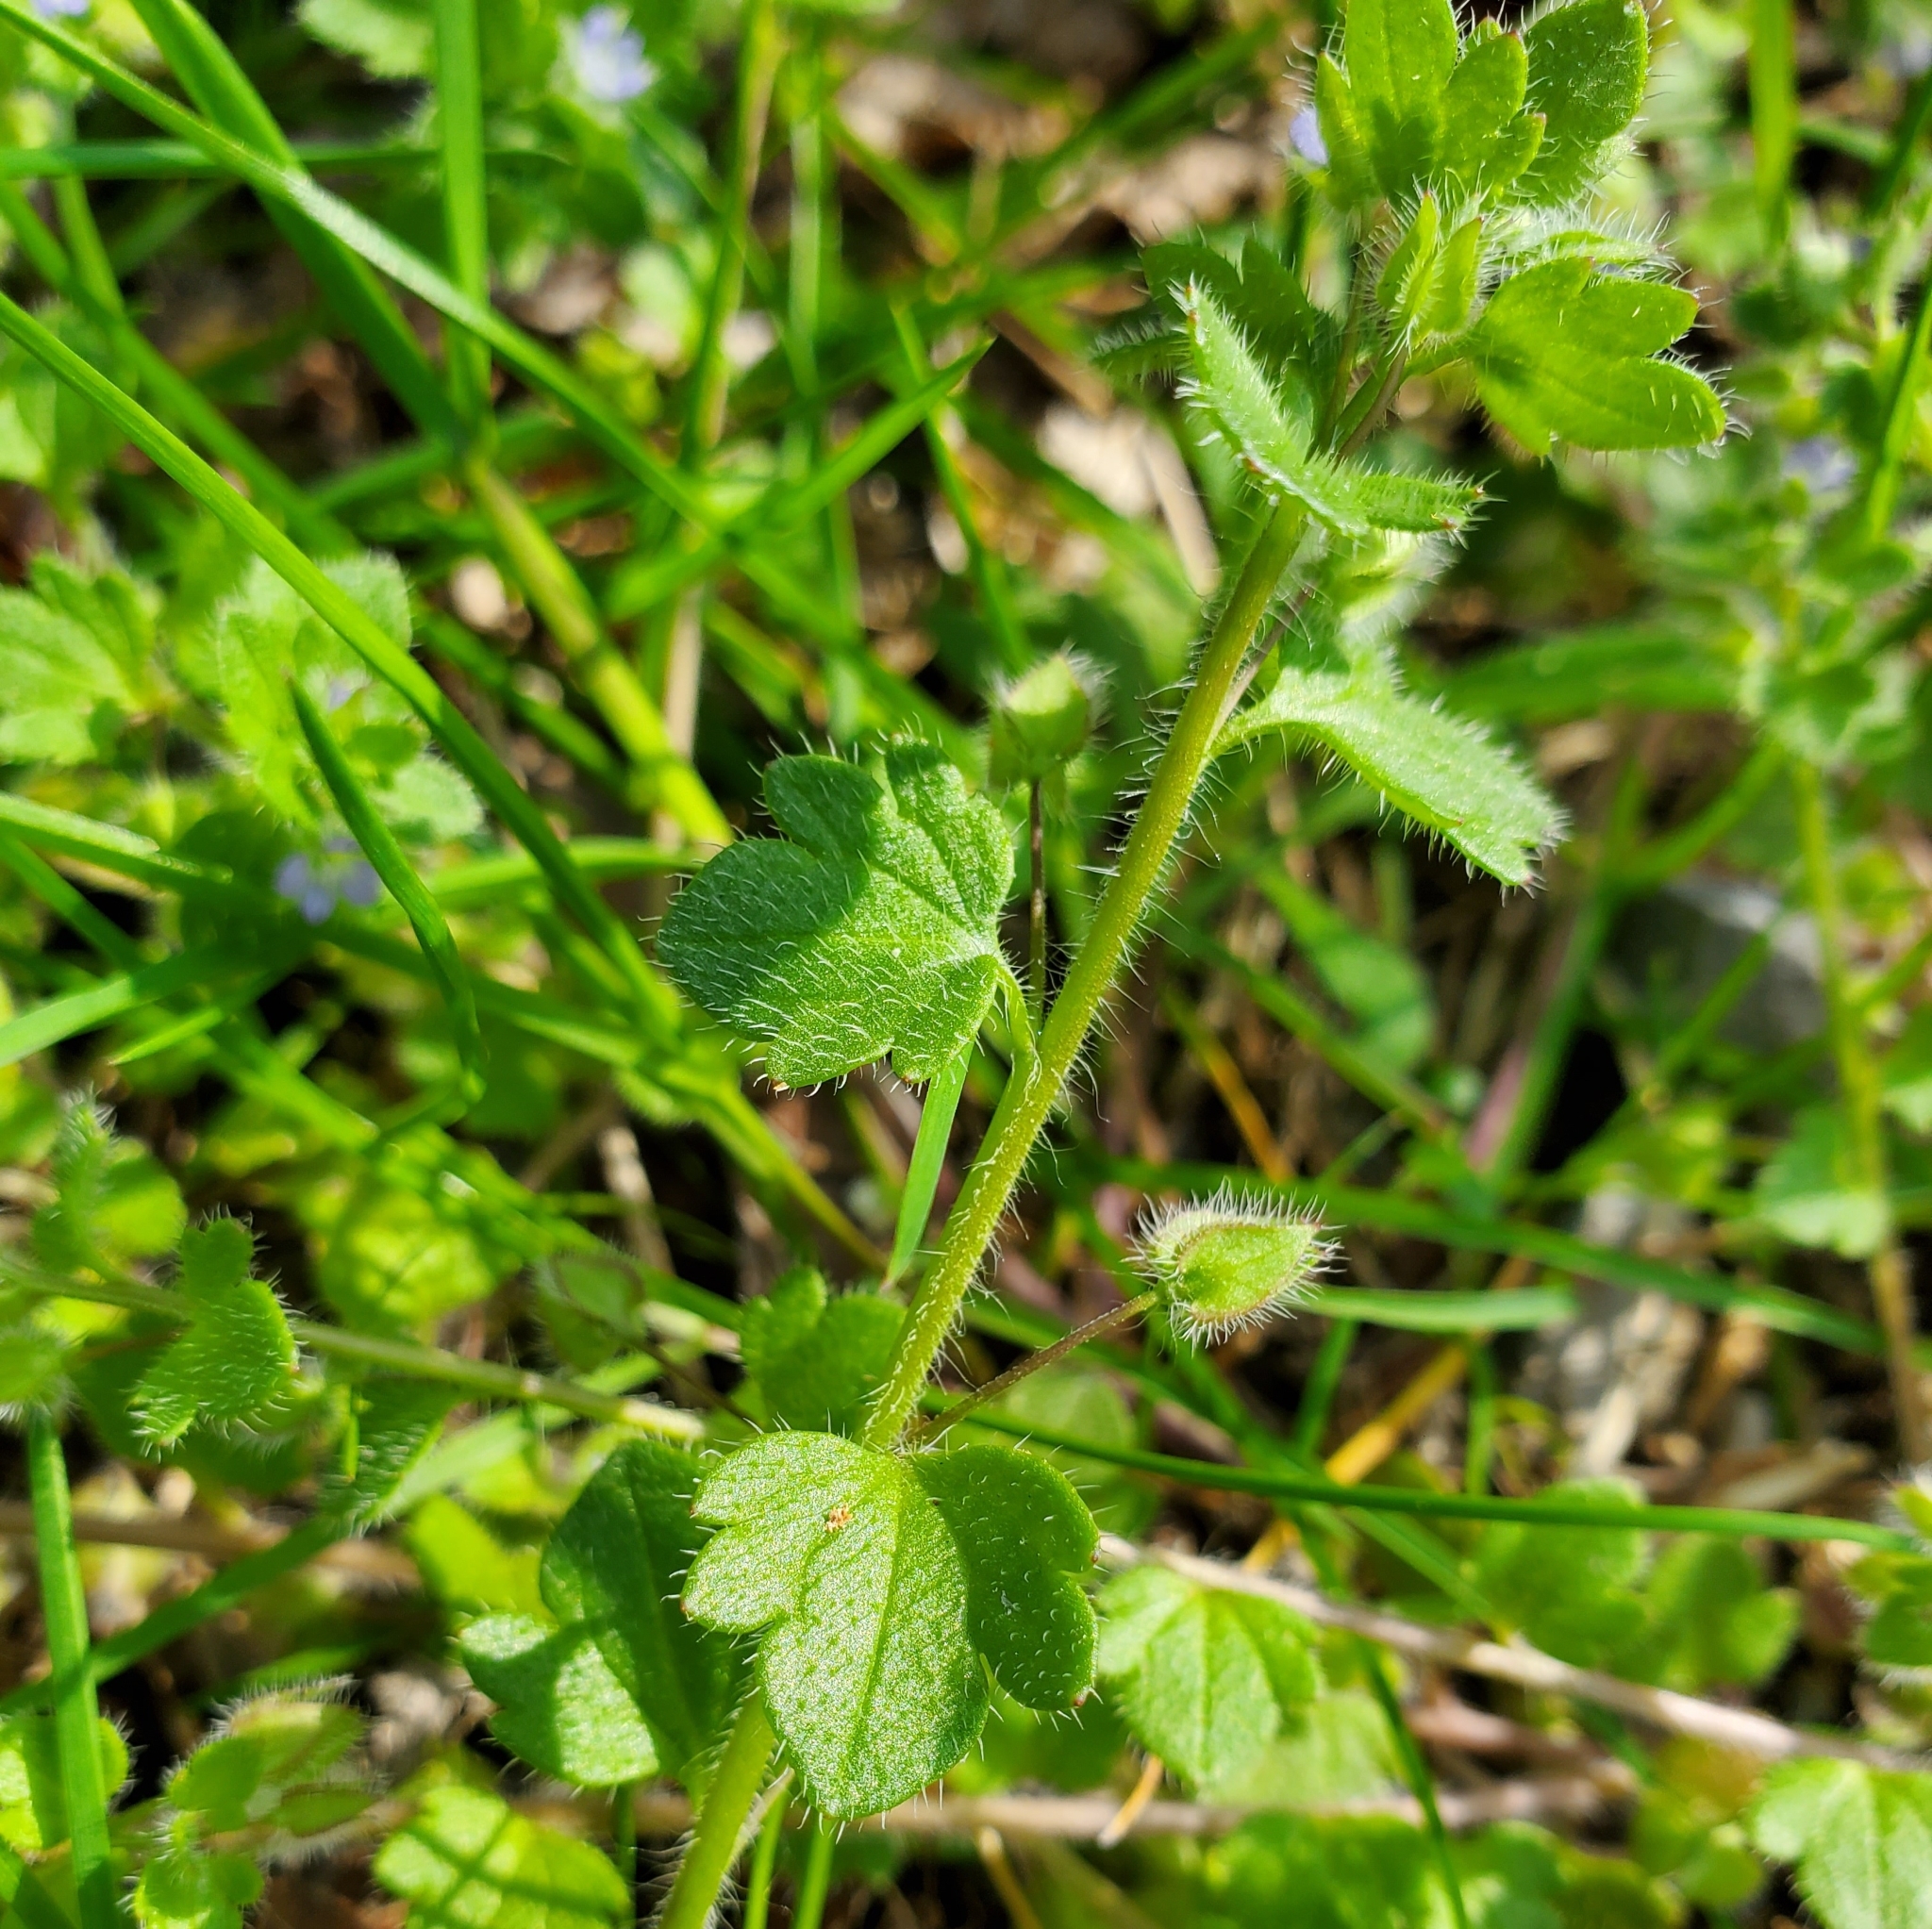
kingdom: Plantae
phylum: Tracheophyta
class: Magnoliopsida
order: Lamiales
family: Plantaginaceae
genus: Veronica
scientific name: Veronica hederifolia
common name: Ivy-leaved speedwell
